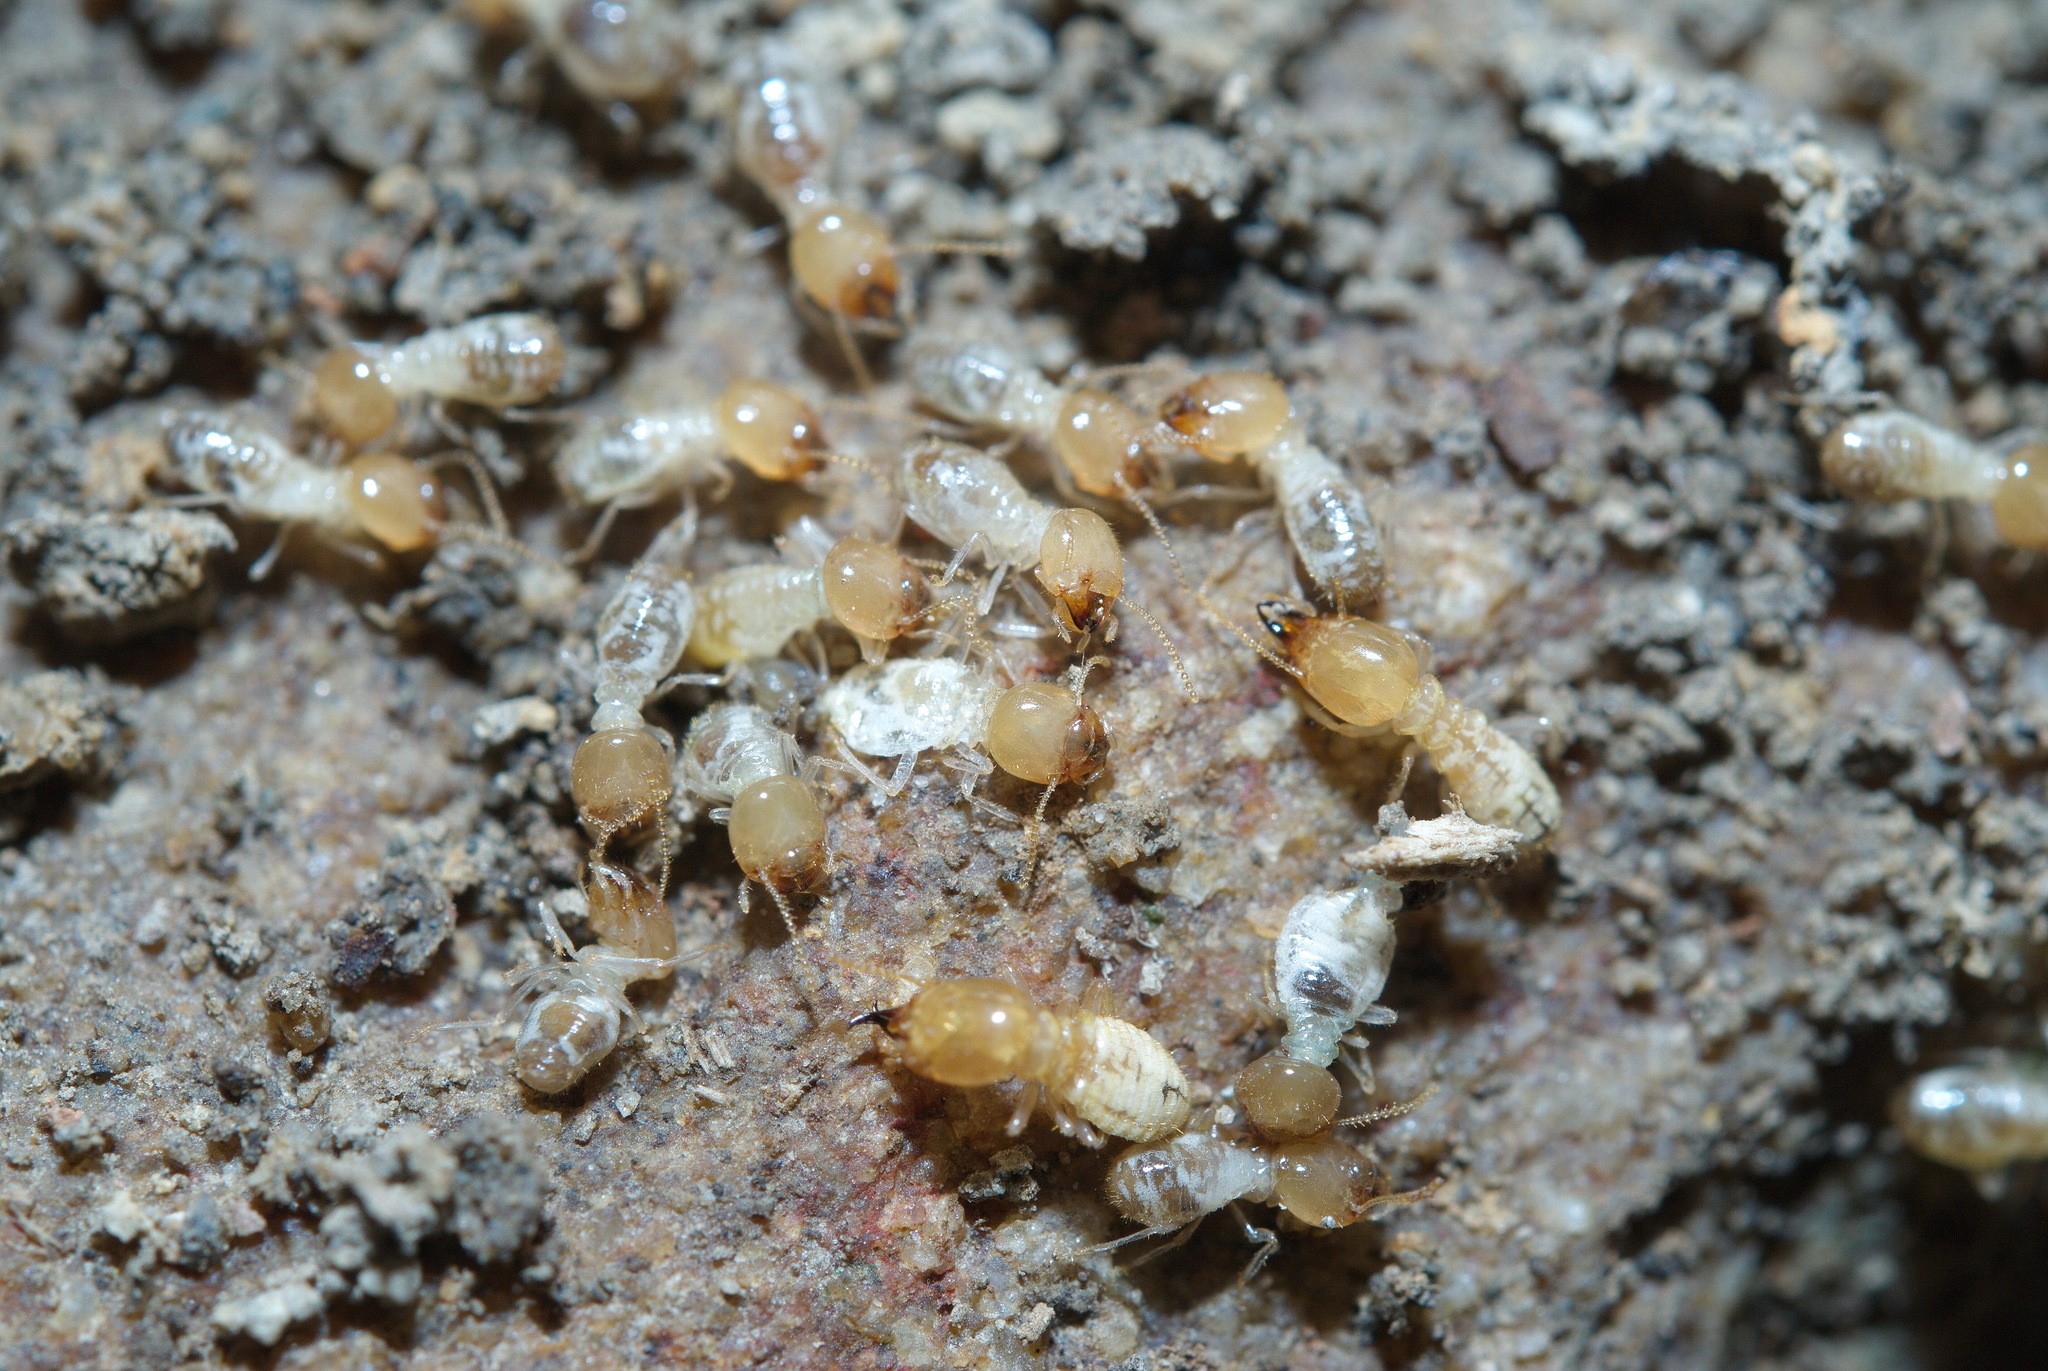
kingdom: Animalia
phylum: Arthropoda
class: Insecta
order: Blattodea
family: Termitidae
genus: Odontotermes
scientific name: Odontotermes formosanus
